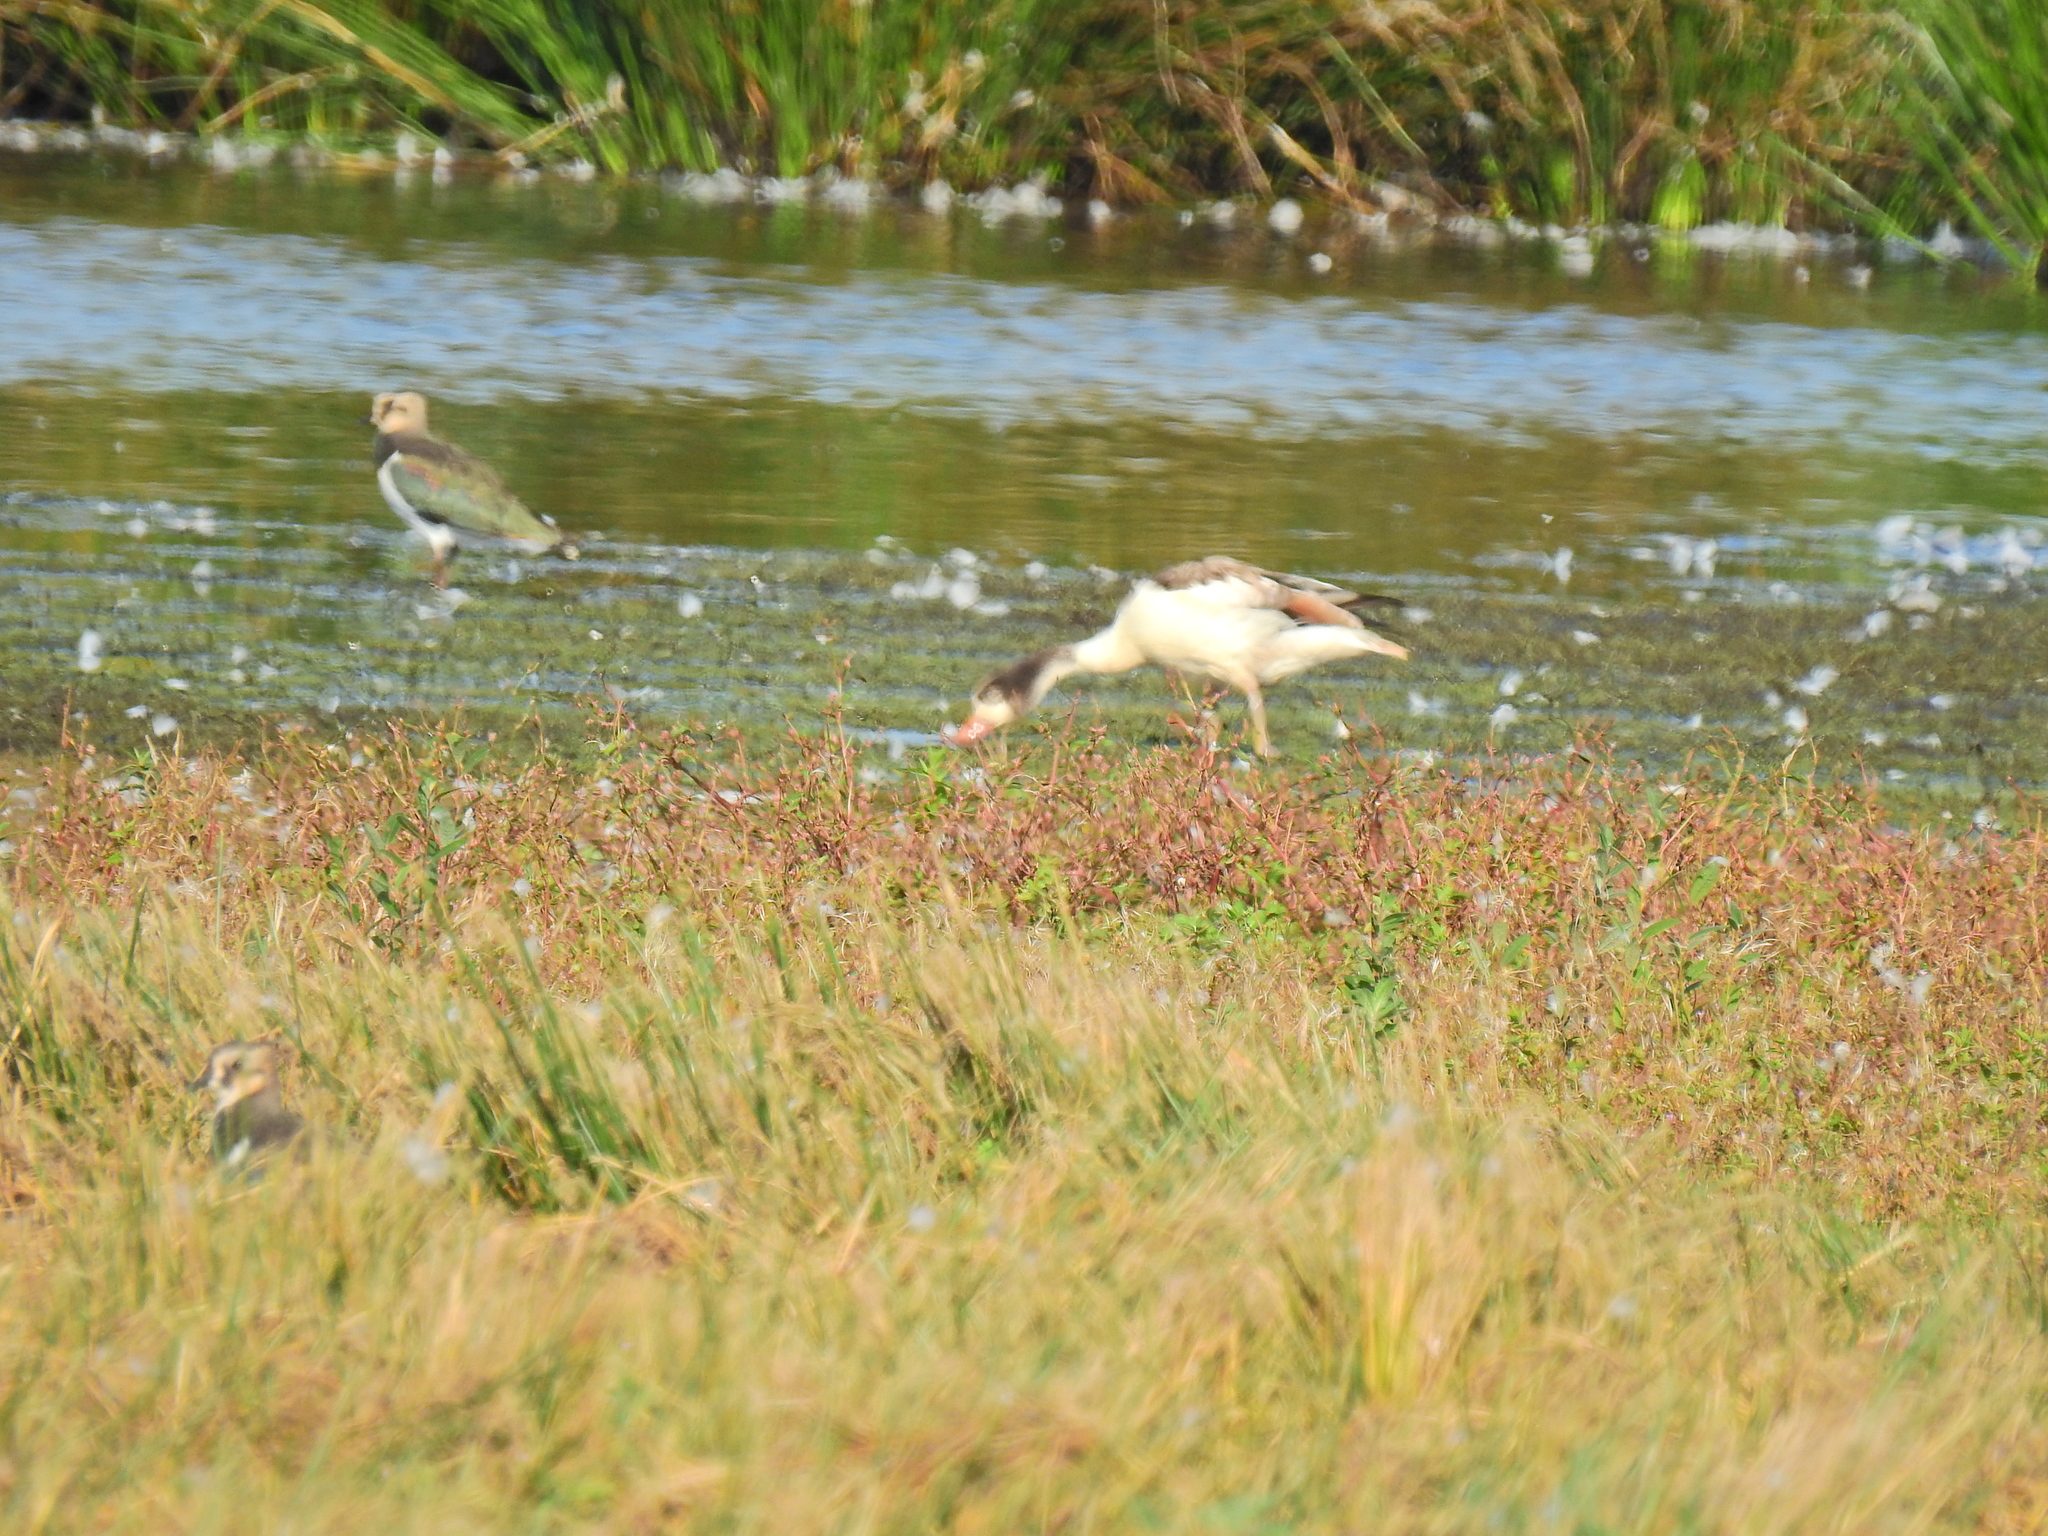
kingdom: Animalia
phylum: Chordata
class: Aves
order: Anseriformes
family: Anatidae
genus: Tadorna
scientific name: Tadorna tadorna
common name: Common shelduck
